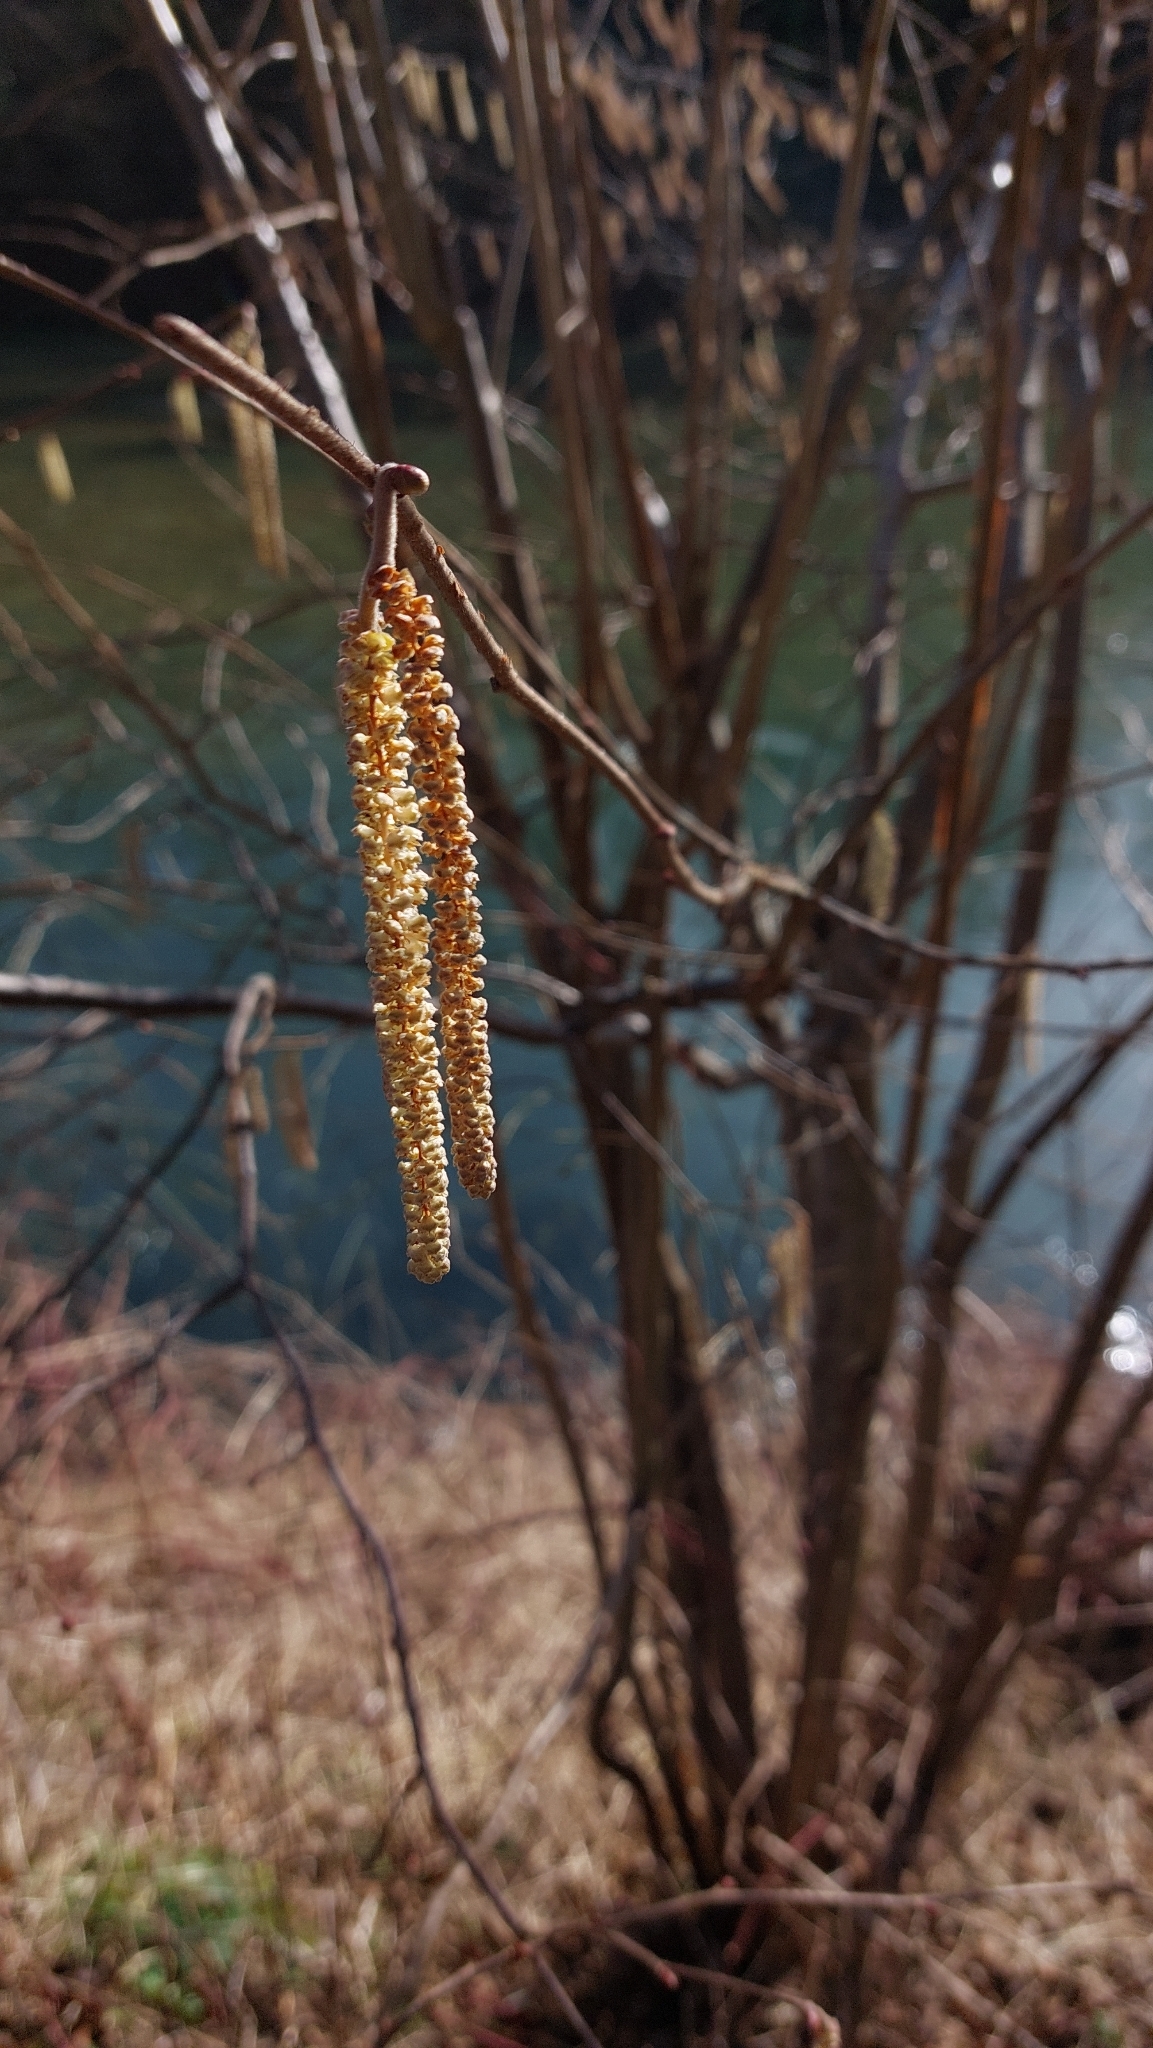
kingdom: Plantae
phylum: Tracheophyta
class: Magnoliopsida
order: Fagales
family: Betulaceae
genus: Corylus
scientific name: Corylus avellana
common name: European hazel
